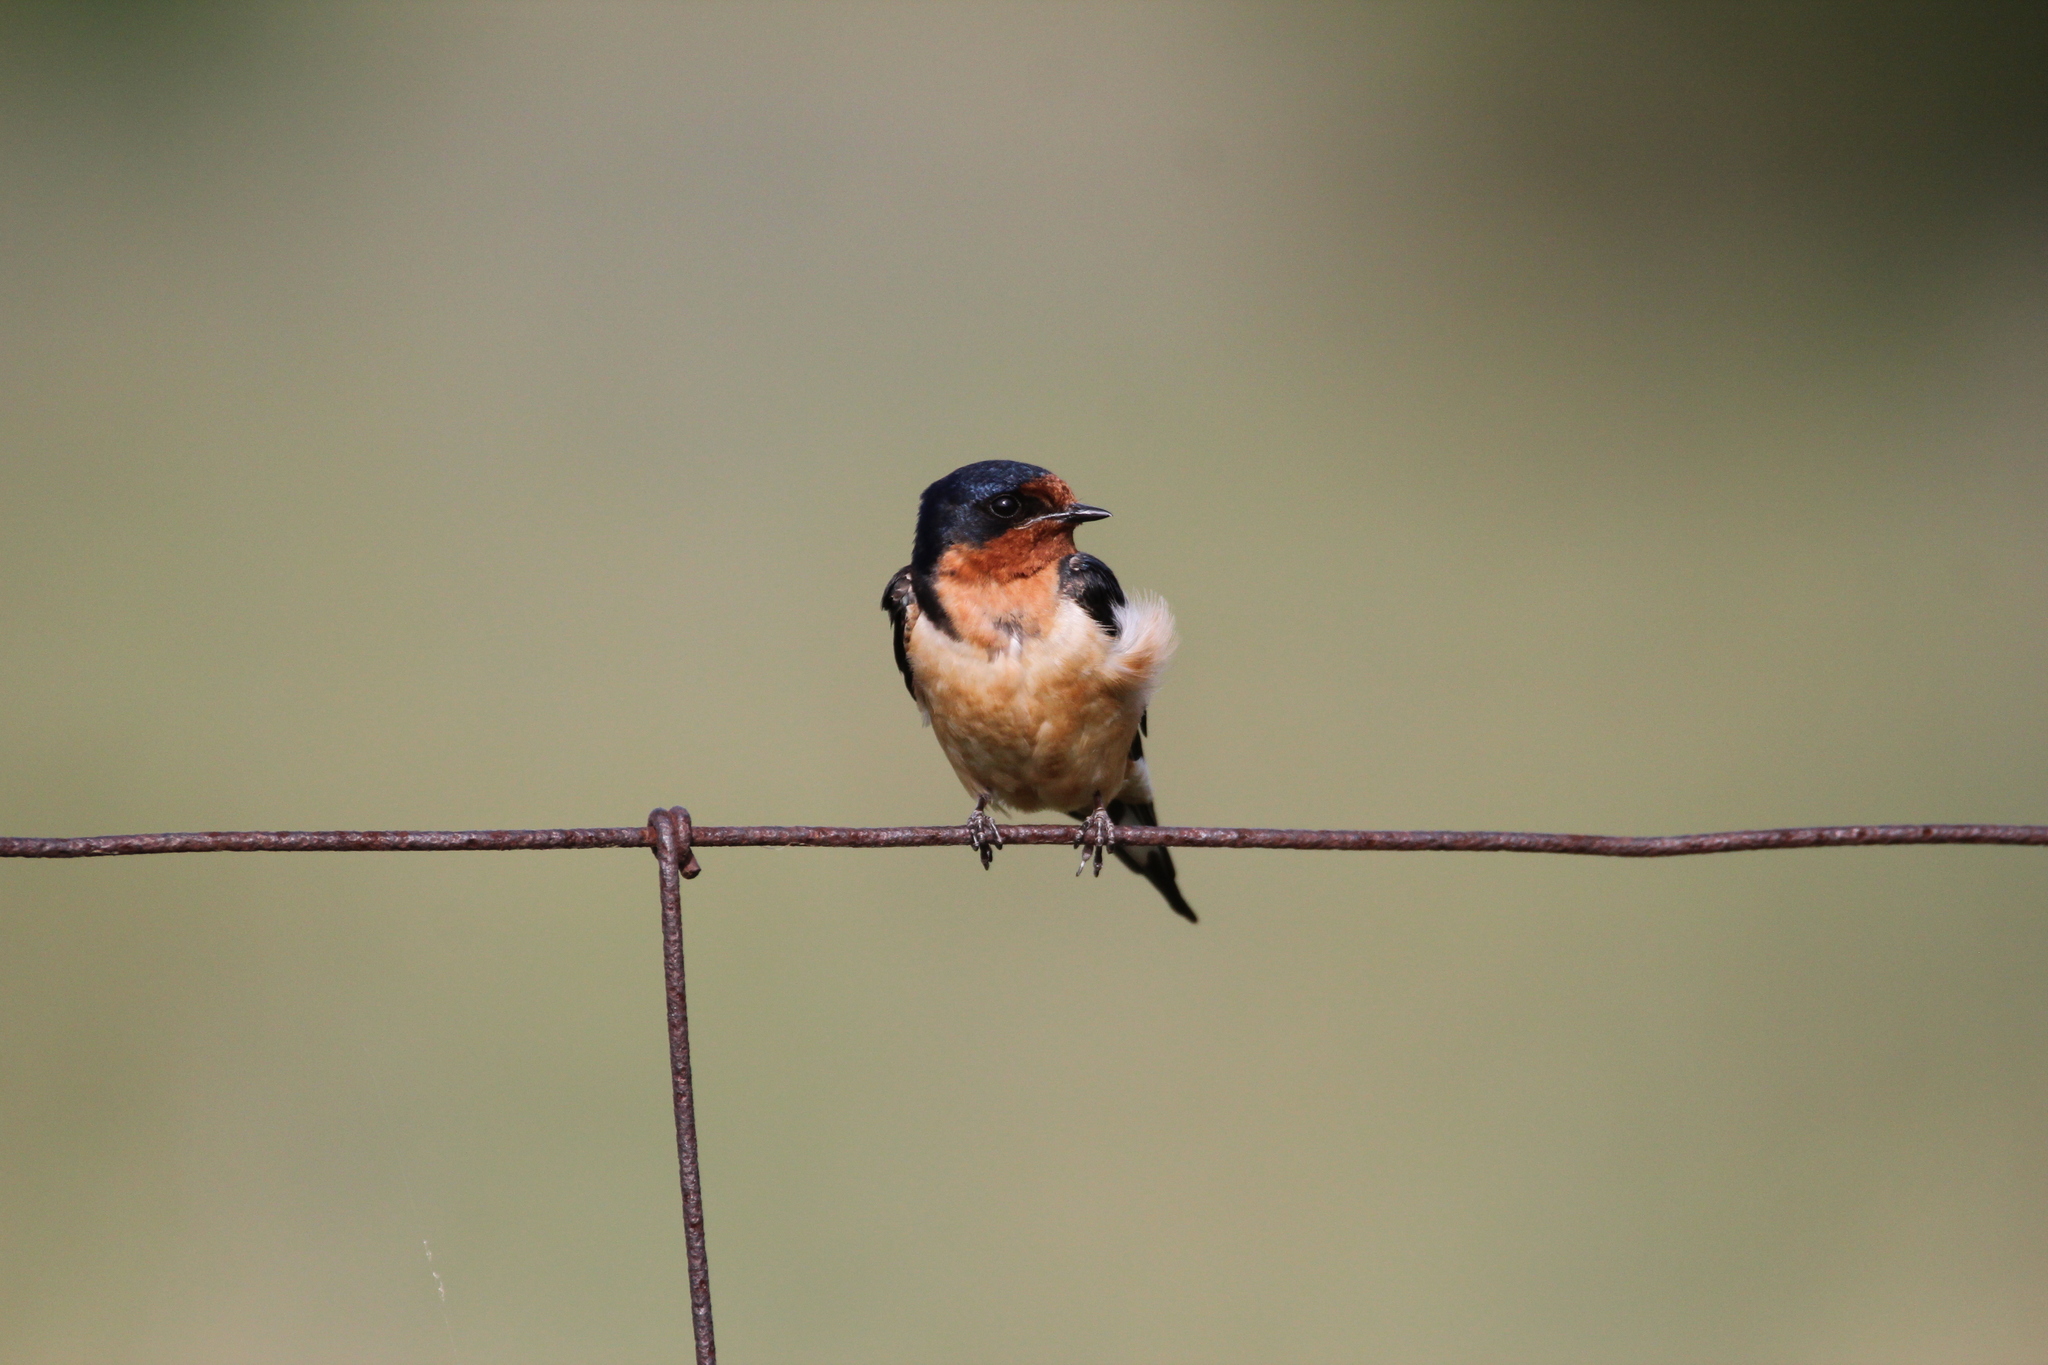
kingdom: Animalia
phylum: Chordata
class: Aves
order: Passeriformes
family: Hirundinidae
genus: Hirundo
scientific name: Hirundo rustica
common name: Barn swallow
